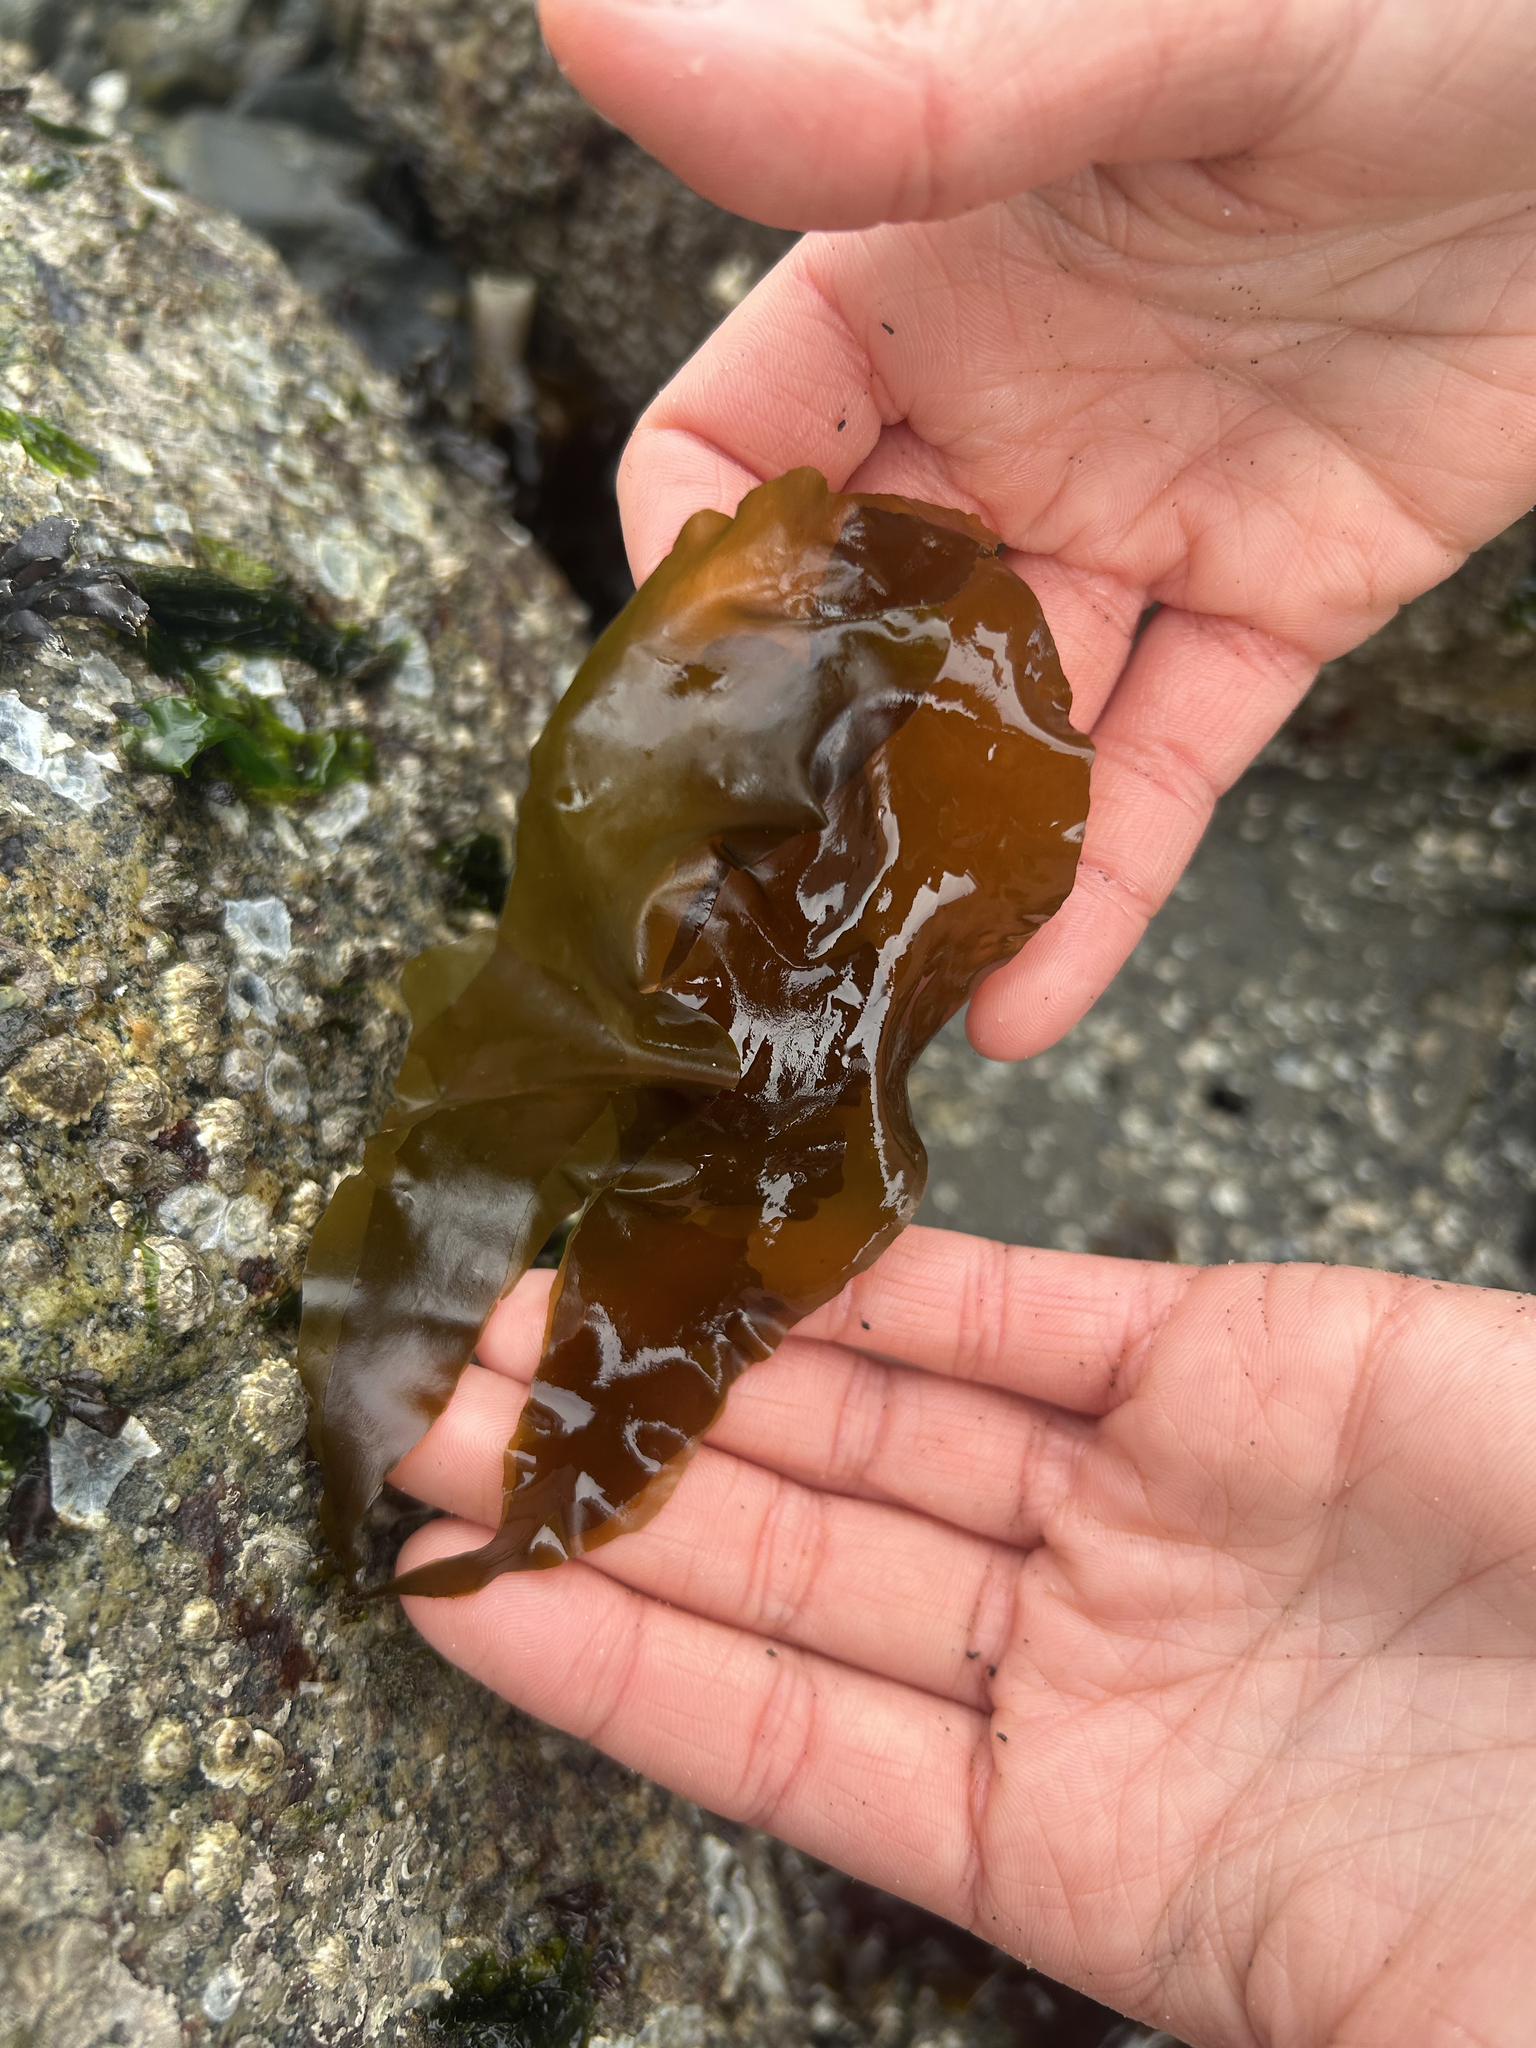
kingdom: Chromista
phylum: Ochrophyta
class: Phaeophyceae
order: Scytosiphonales
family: Scytosiphonaceae
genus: Petalonia
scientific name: Petalonia fascia
